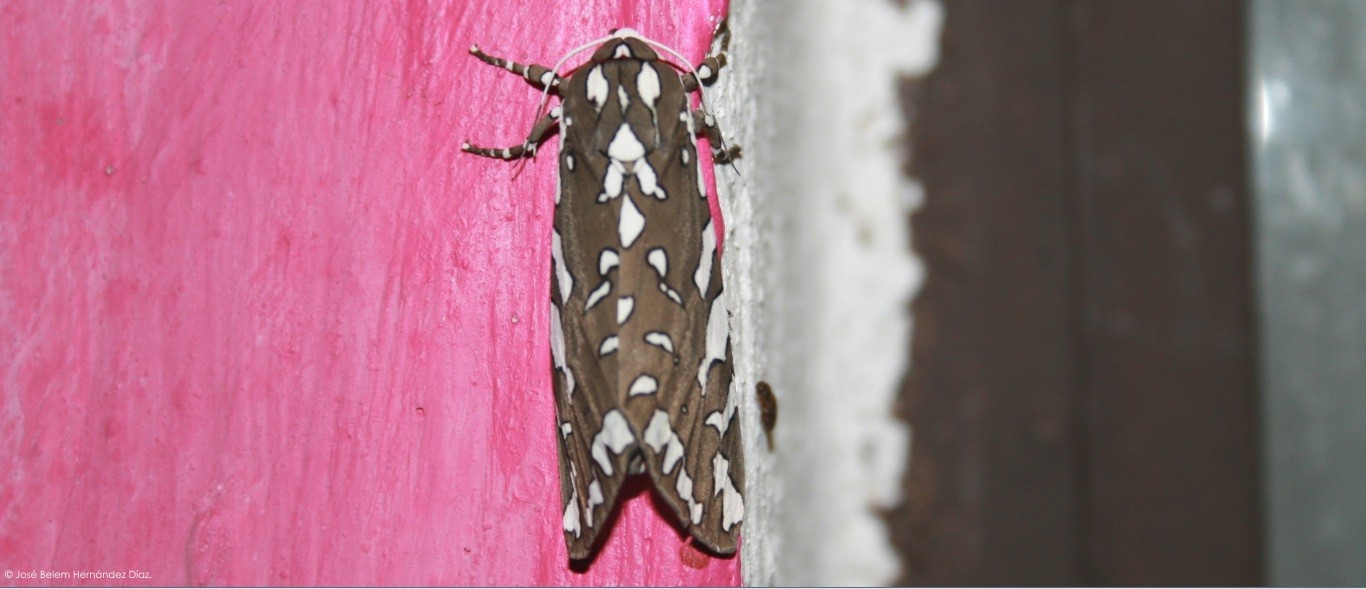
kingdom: Animalia
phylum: Arthropoda
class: Insecta
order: Lepidoptera
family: Erebidae
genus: Arachnis
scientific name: Arachnis dilecta
